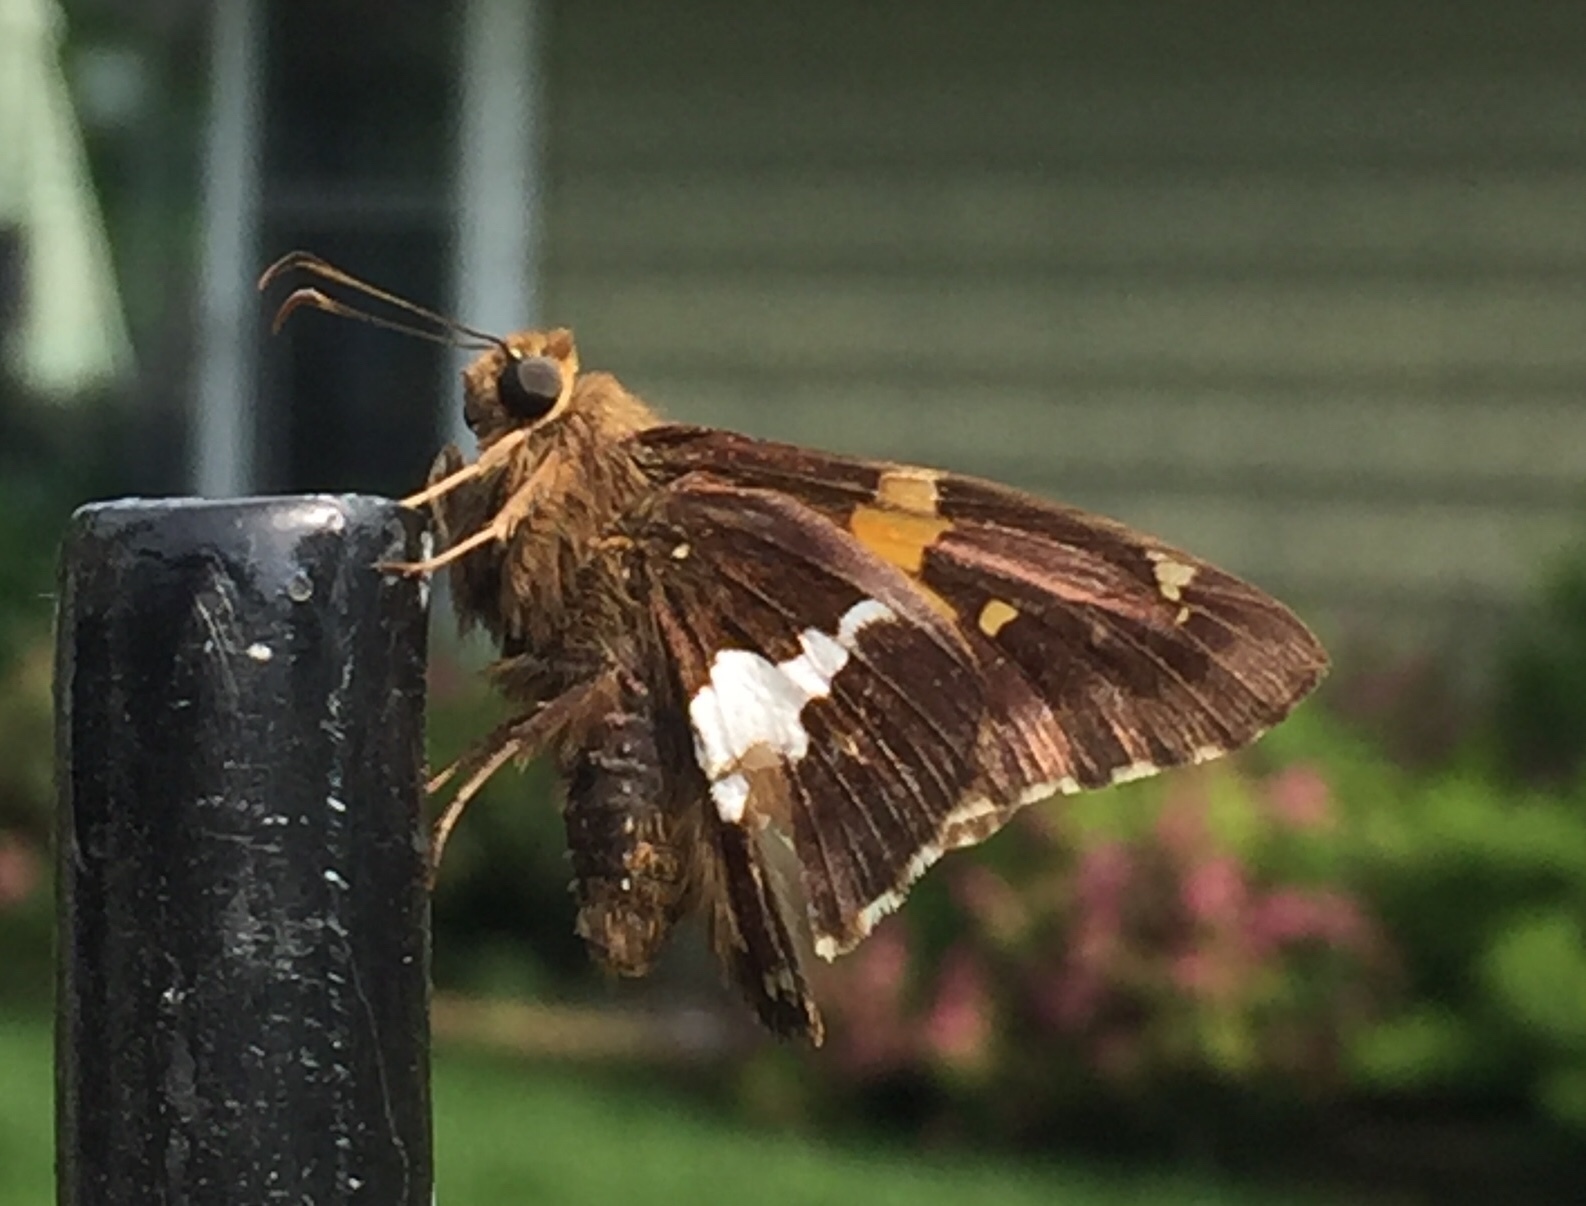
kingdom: Animalia
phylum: Arthropoda
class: Insecta
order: Lepidoptera
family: Hesperiidae
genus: Epargyreus
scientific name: Epargyreus clarus
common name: Silver-spotted skipper
